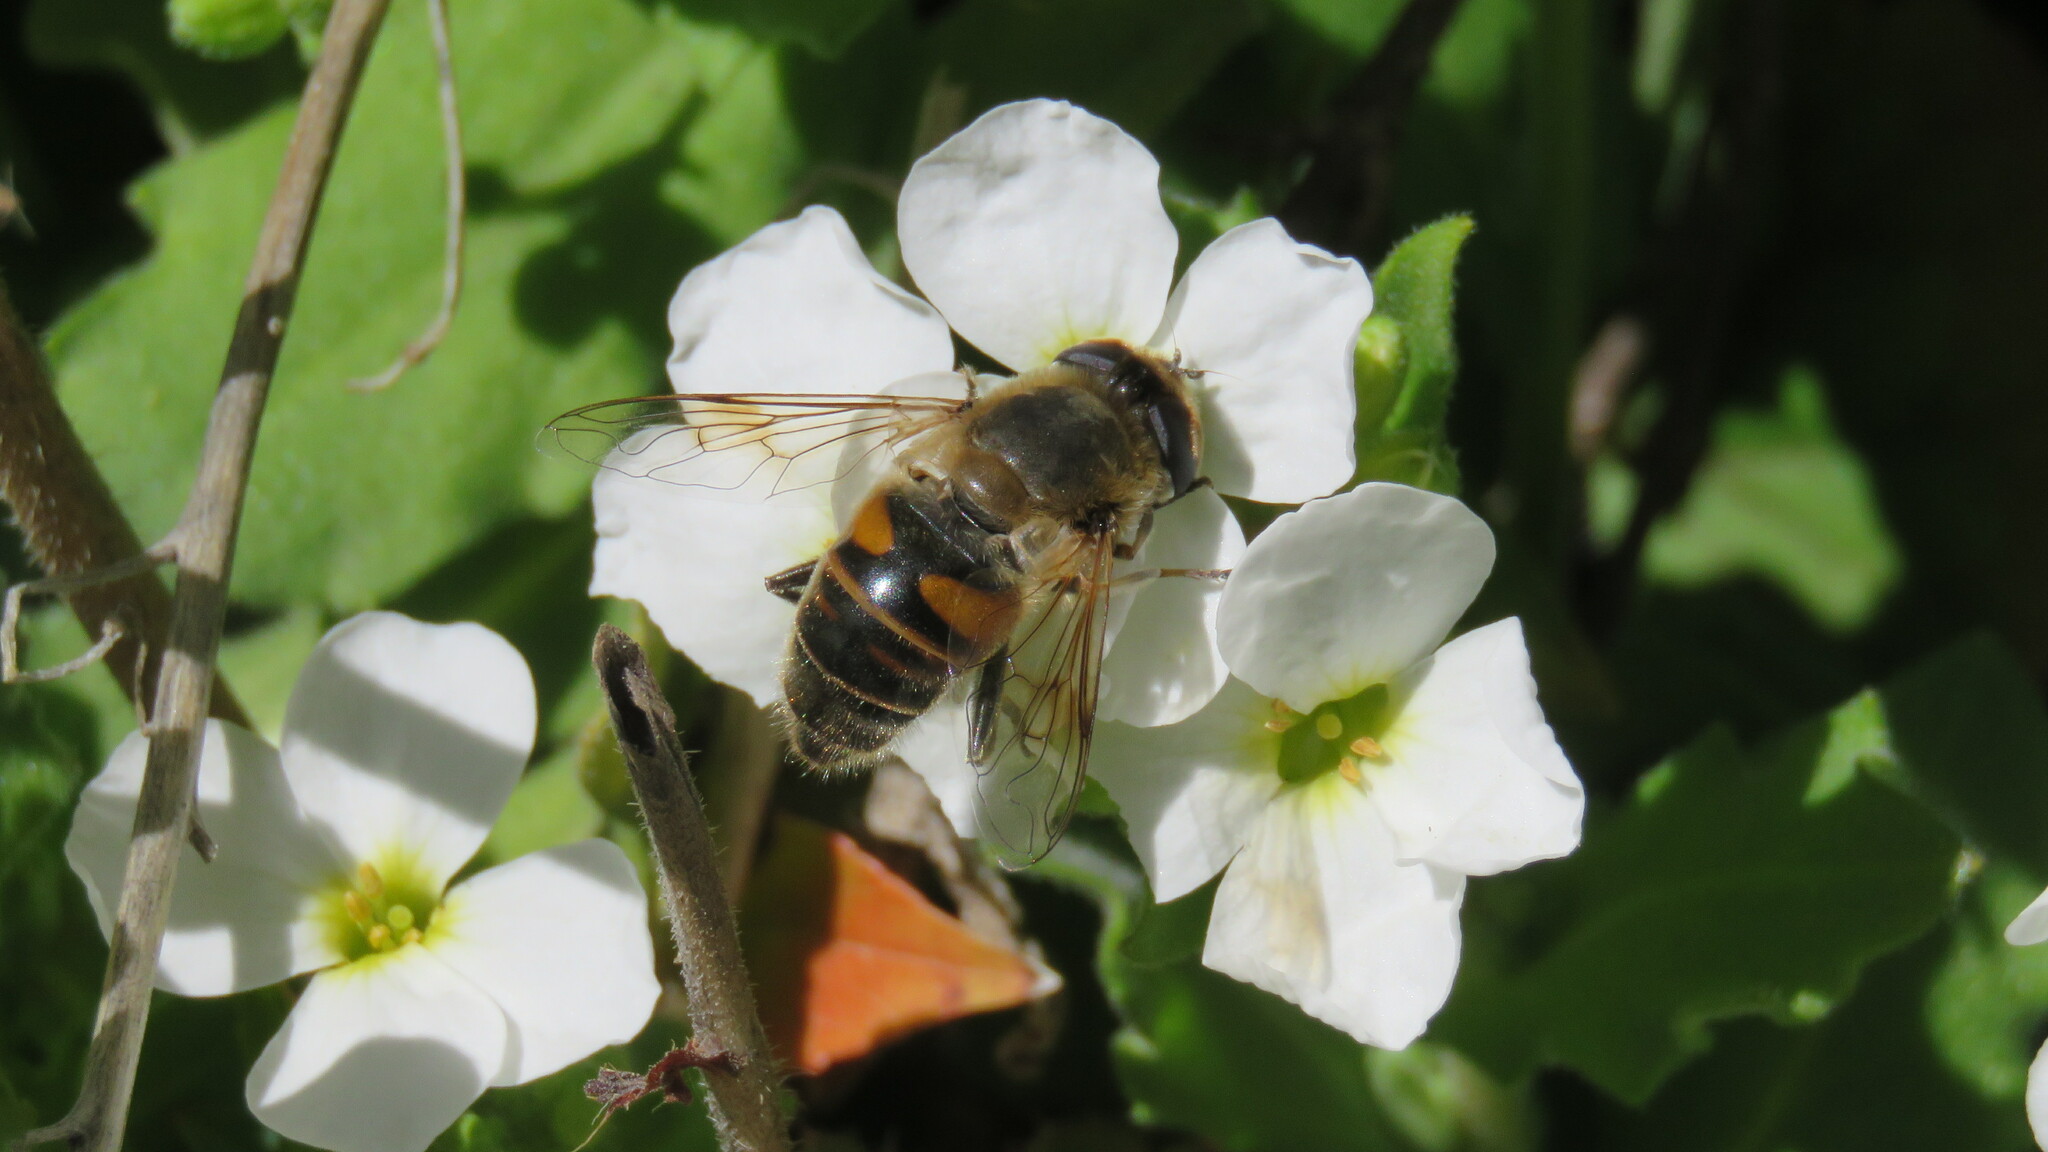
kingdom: Animalia
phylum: Arthropoda
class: Insecta
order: Diptera
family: Syrphidae
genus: Eristalis
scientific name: Eristalis tenax
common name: Drone fly
